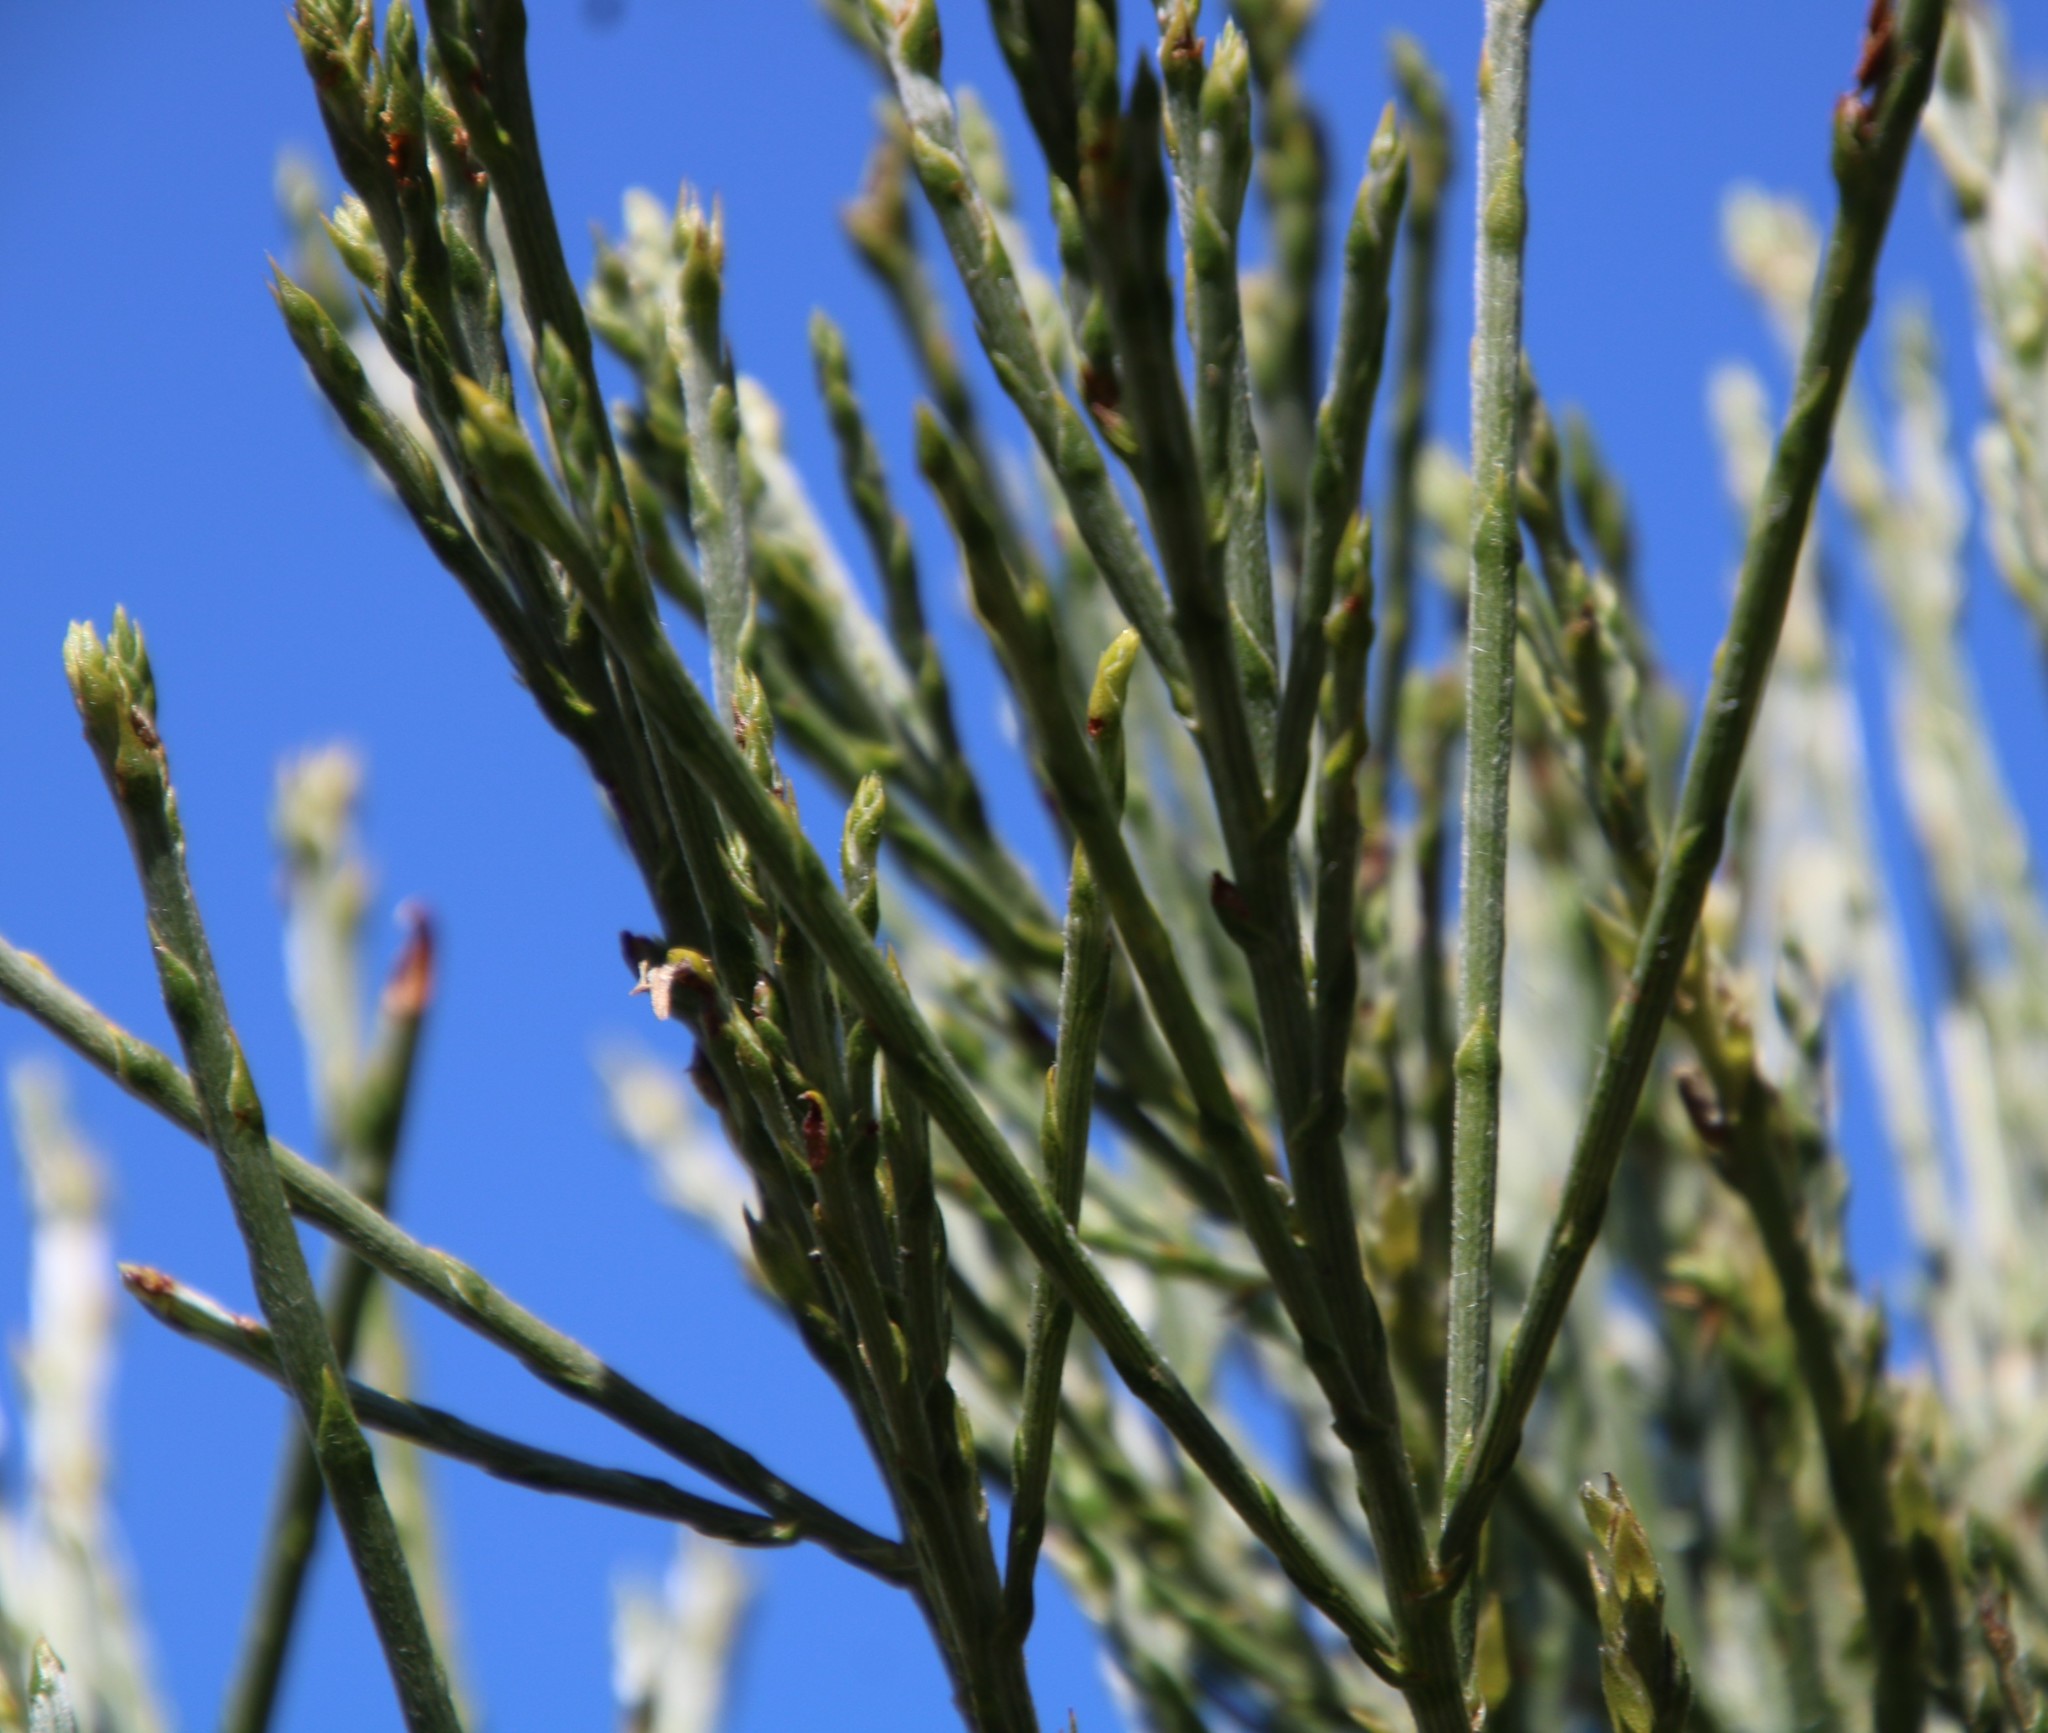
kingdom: Plantae
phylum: Tracheophyta
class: Magnoliopsida
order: Fabales
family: Fabaceae
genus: Psoralea
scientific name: Psoralea aphylla
